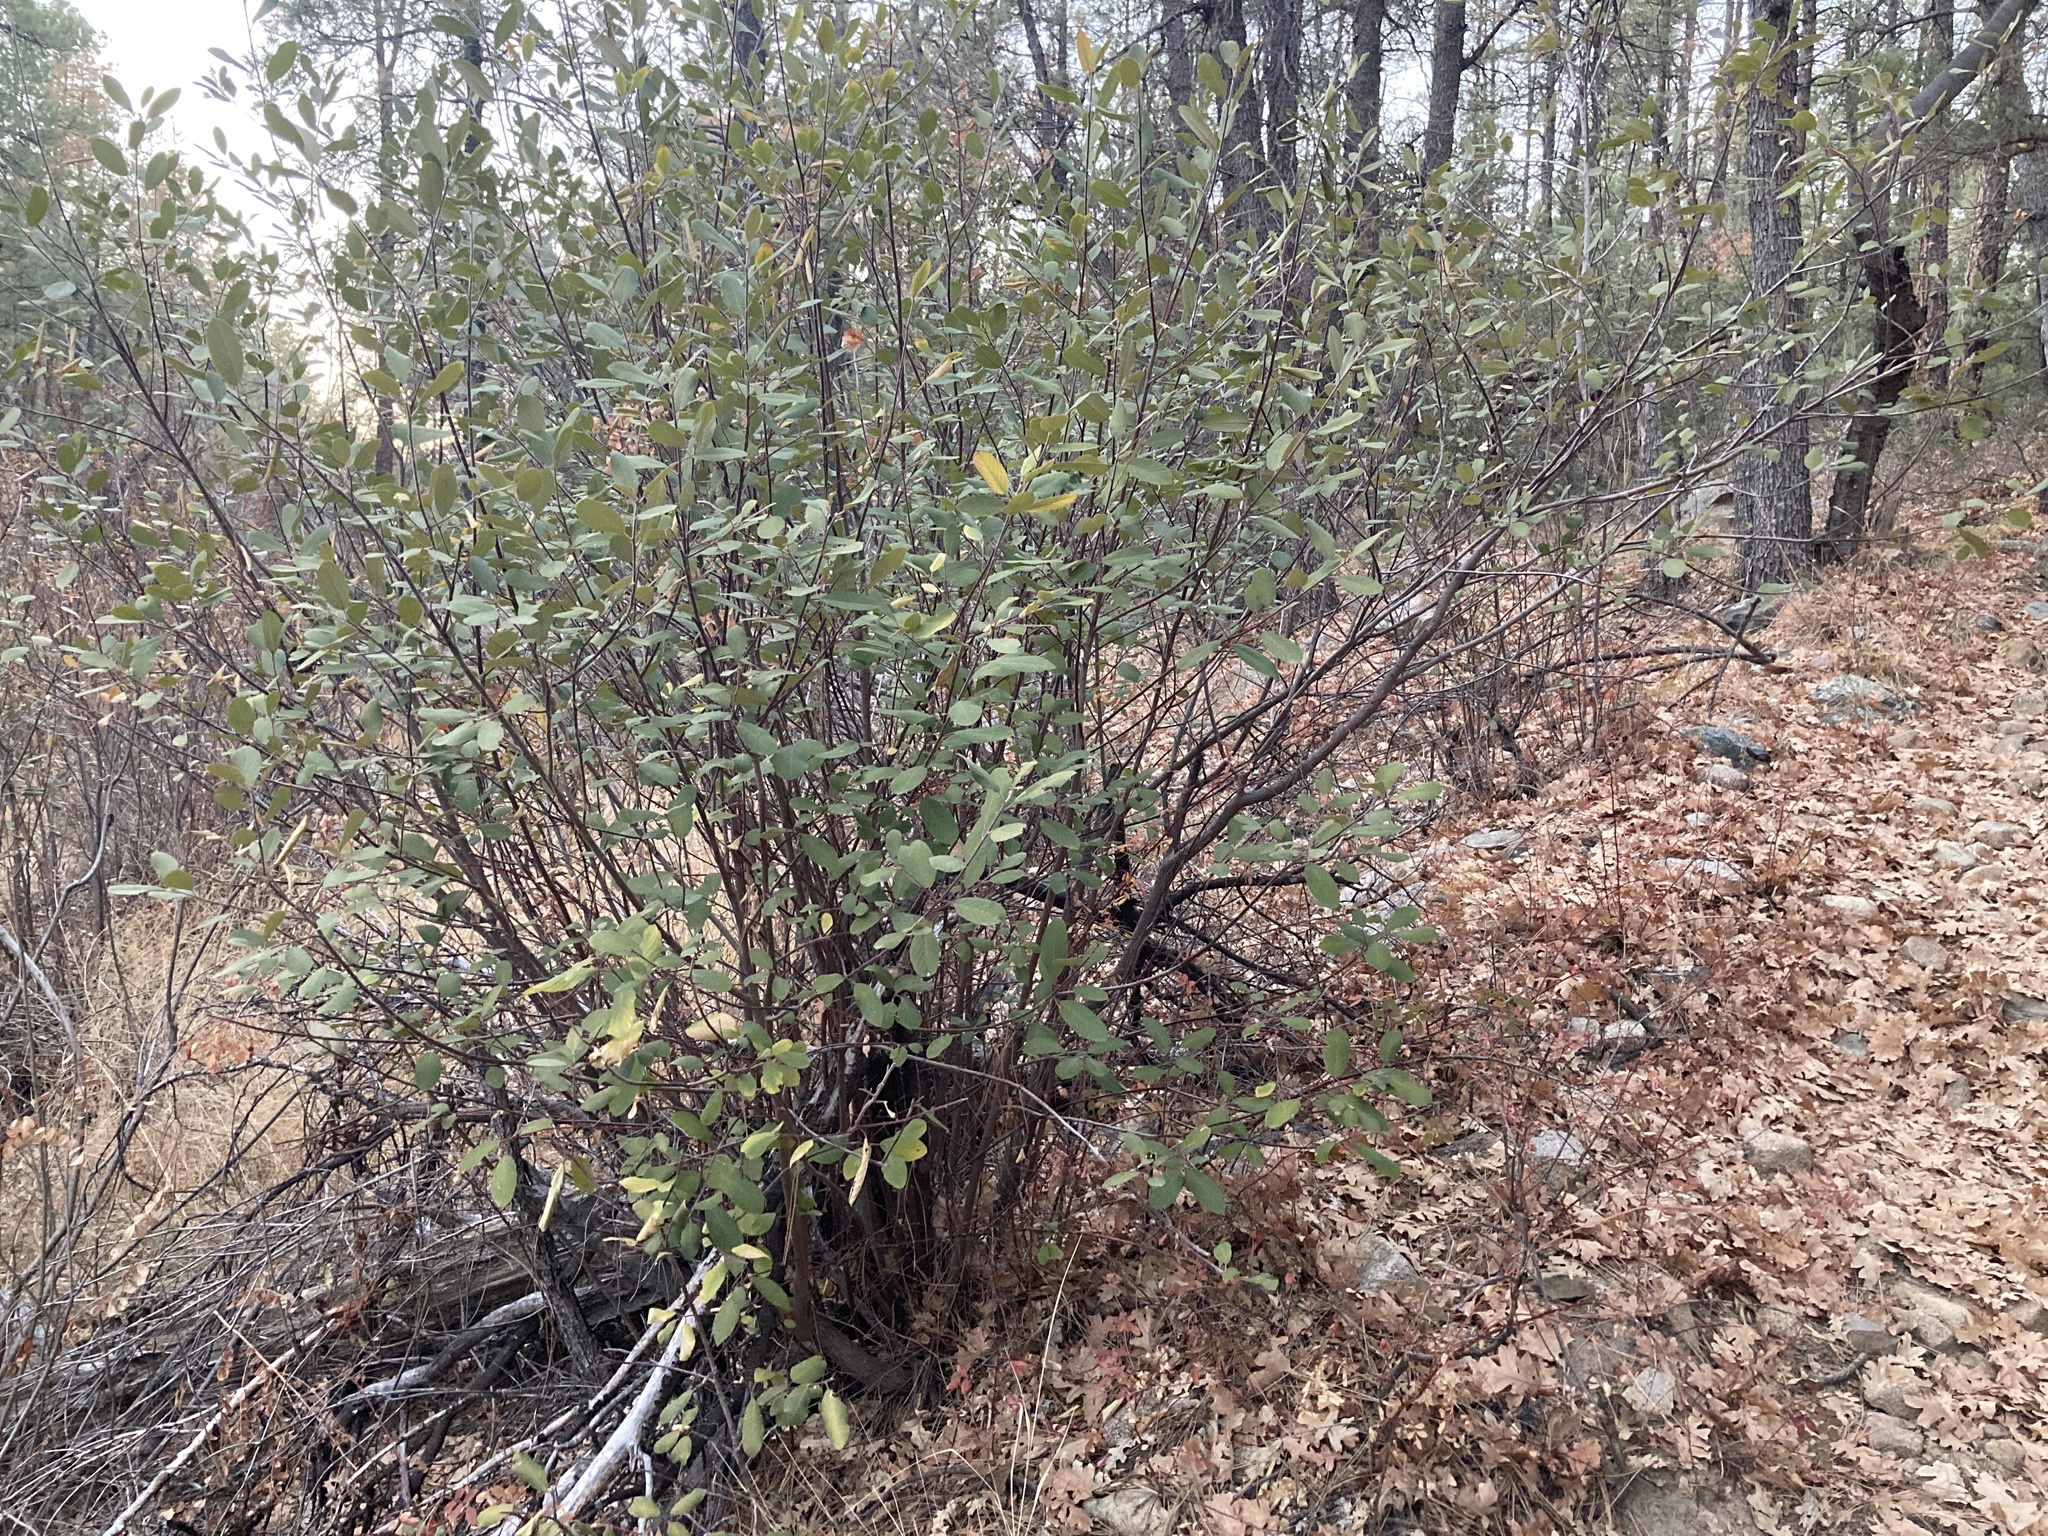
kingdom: Plantae
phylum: Tracheophyta
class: Magnoliopsida
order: Rosales
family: Rhamnaceae
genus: Frangula
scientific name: Frangula californica
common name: California buckthorn
